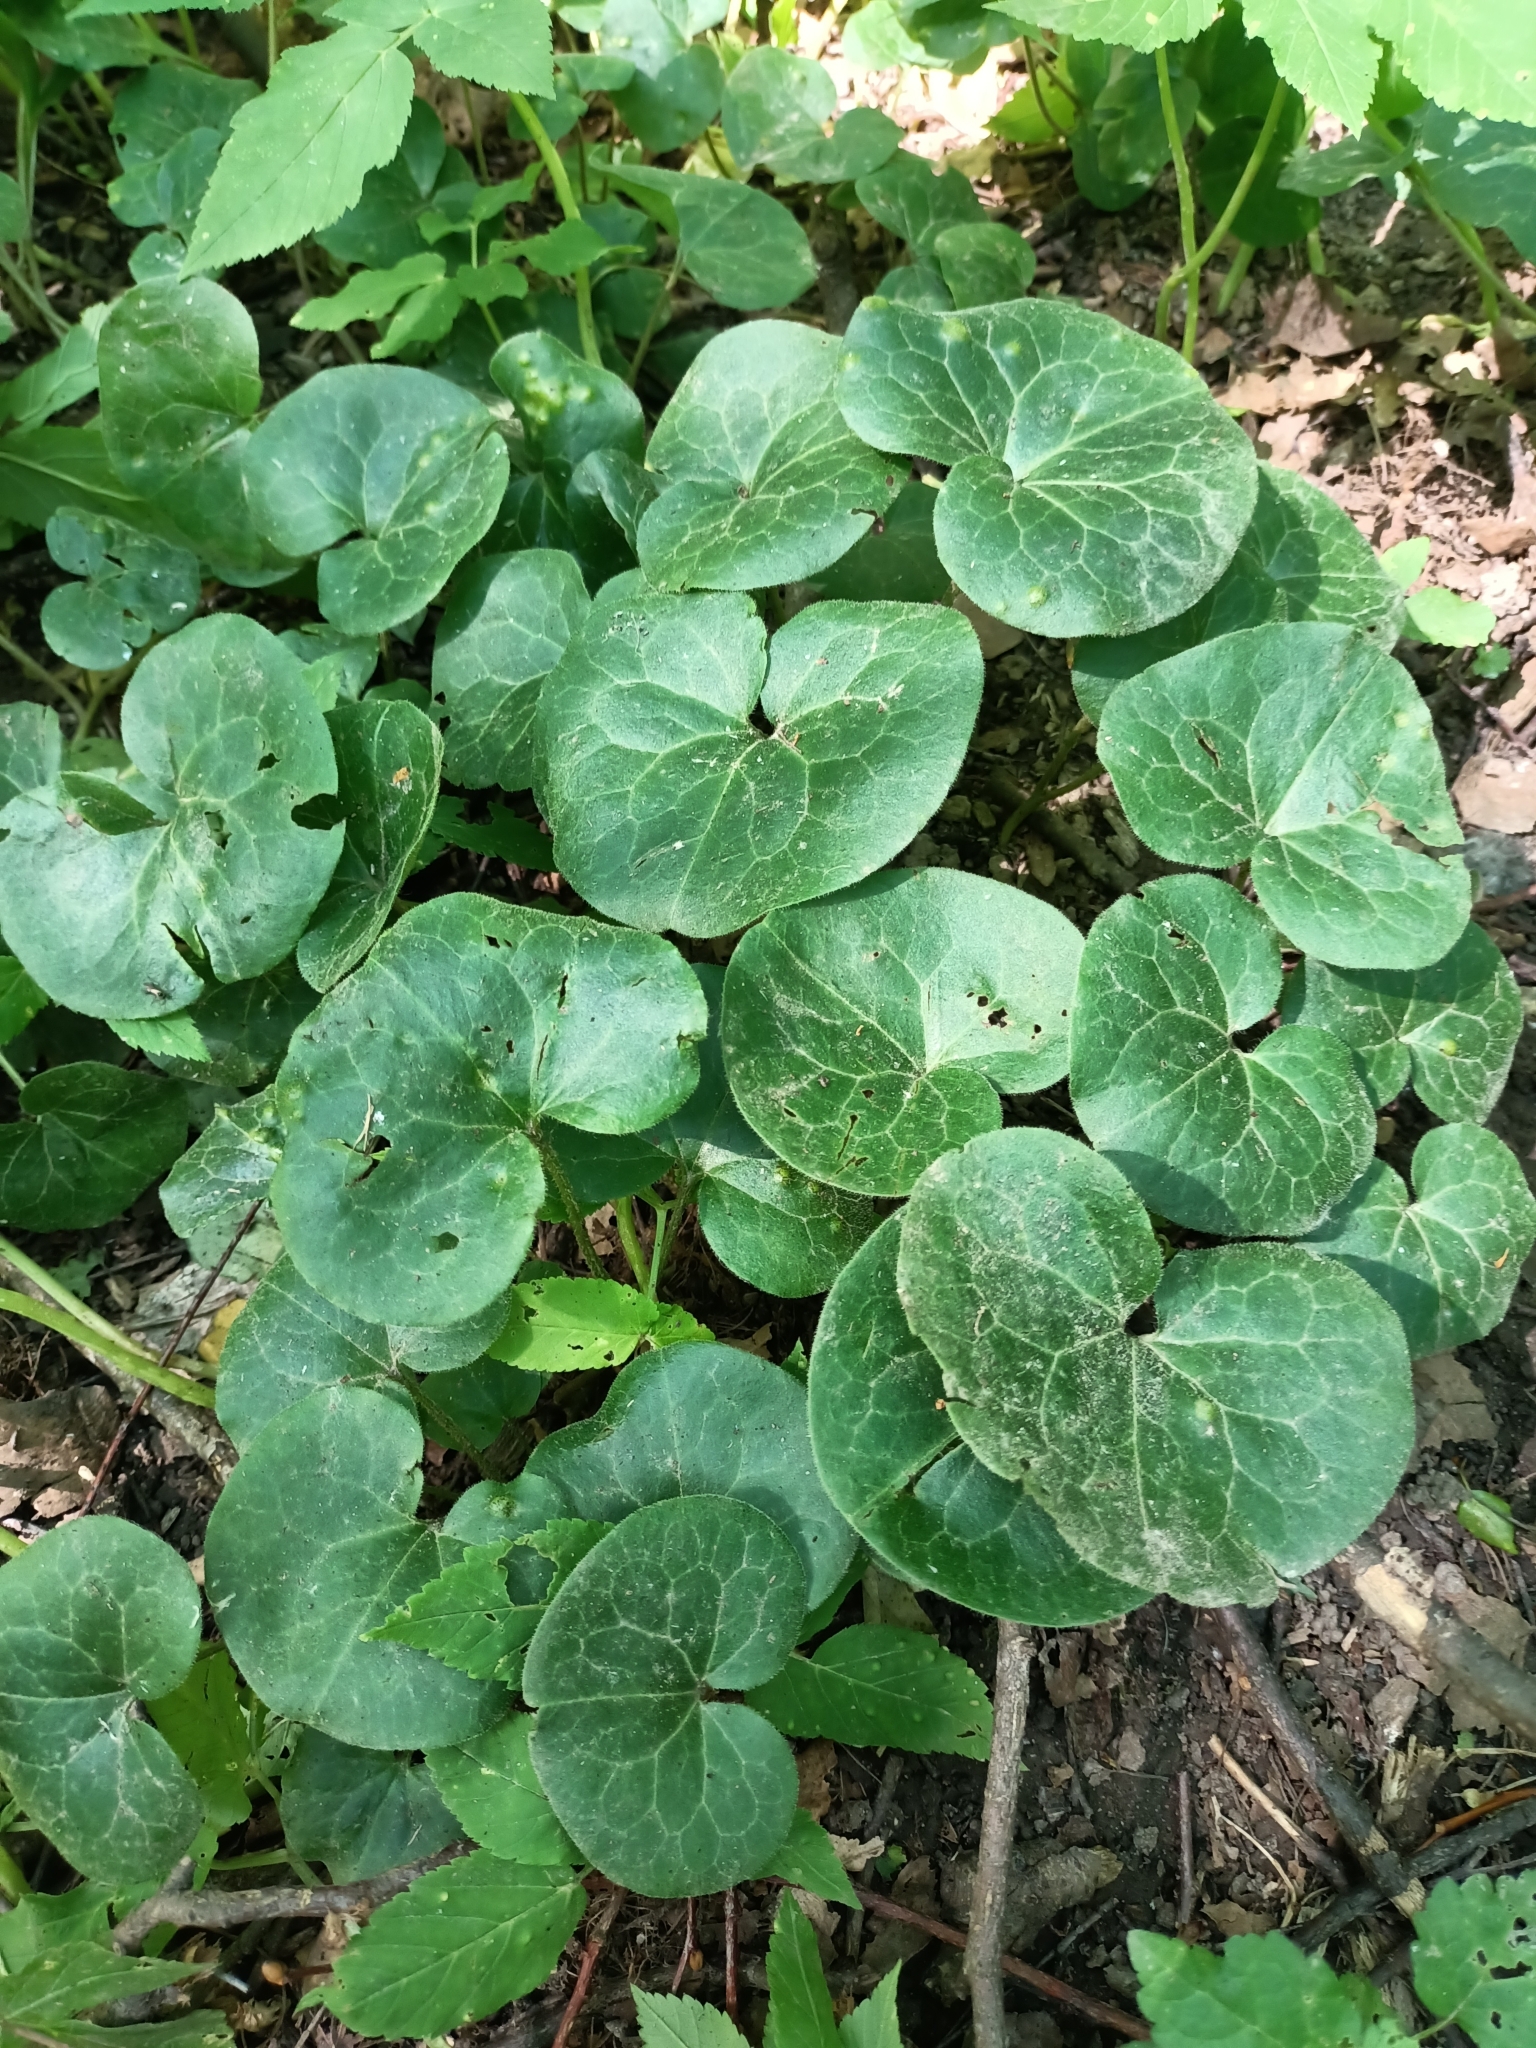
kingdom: Plantae
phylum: Tracheophyta
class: Magnoliopsida
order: Piperales
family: Aristolochiaceae
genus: Asarum
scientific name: Asarum europaeum
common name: Asarabacca
